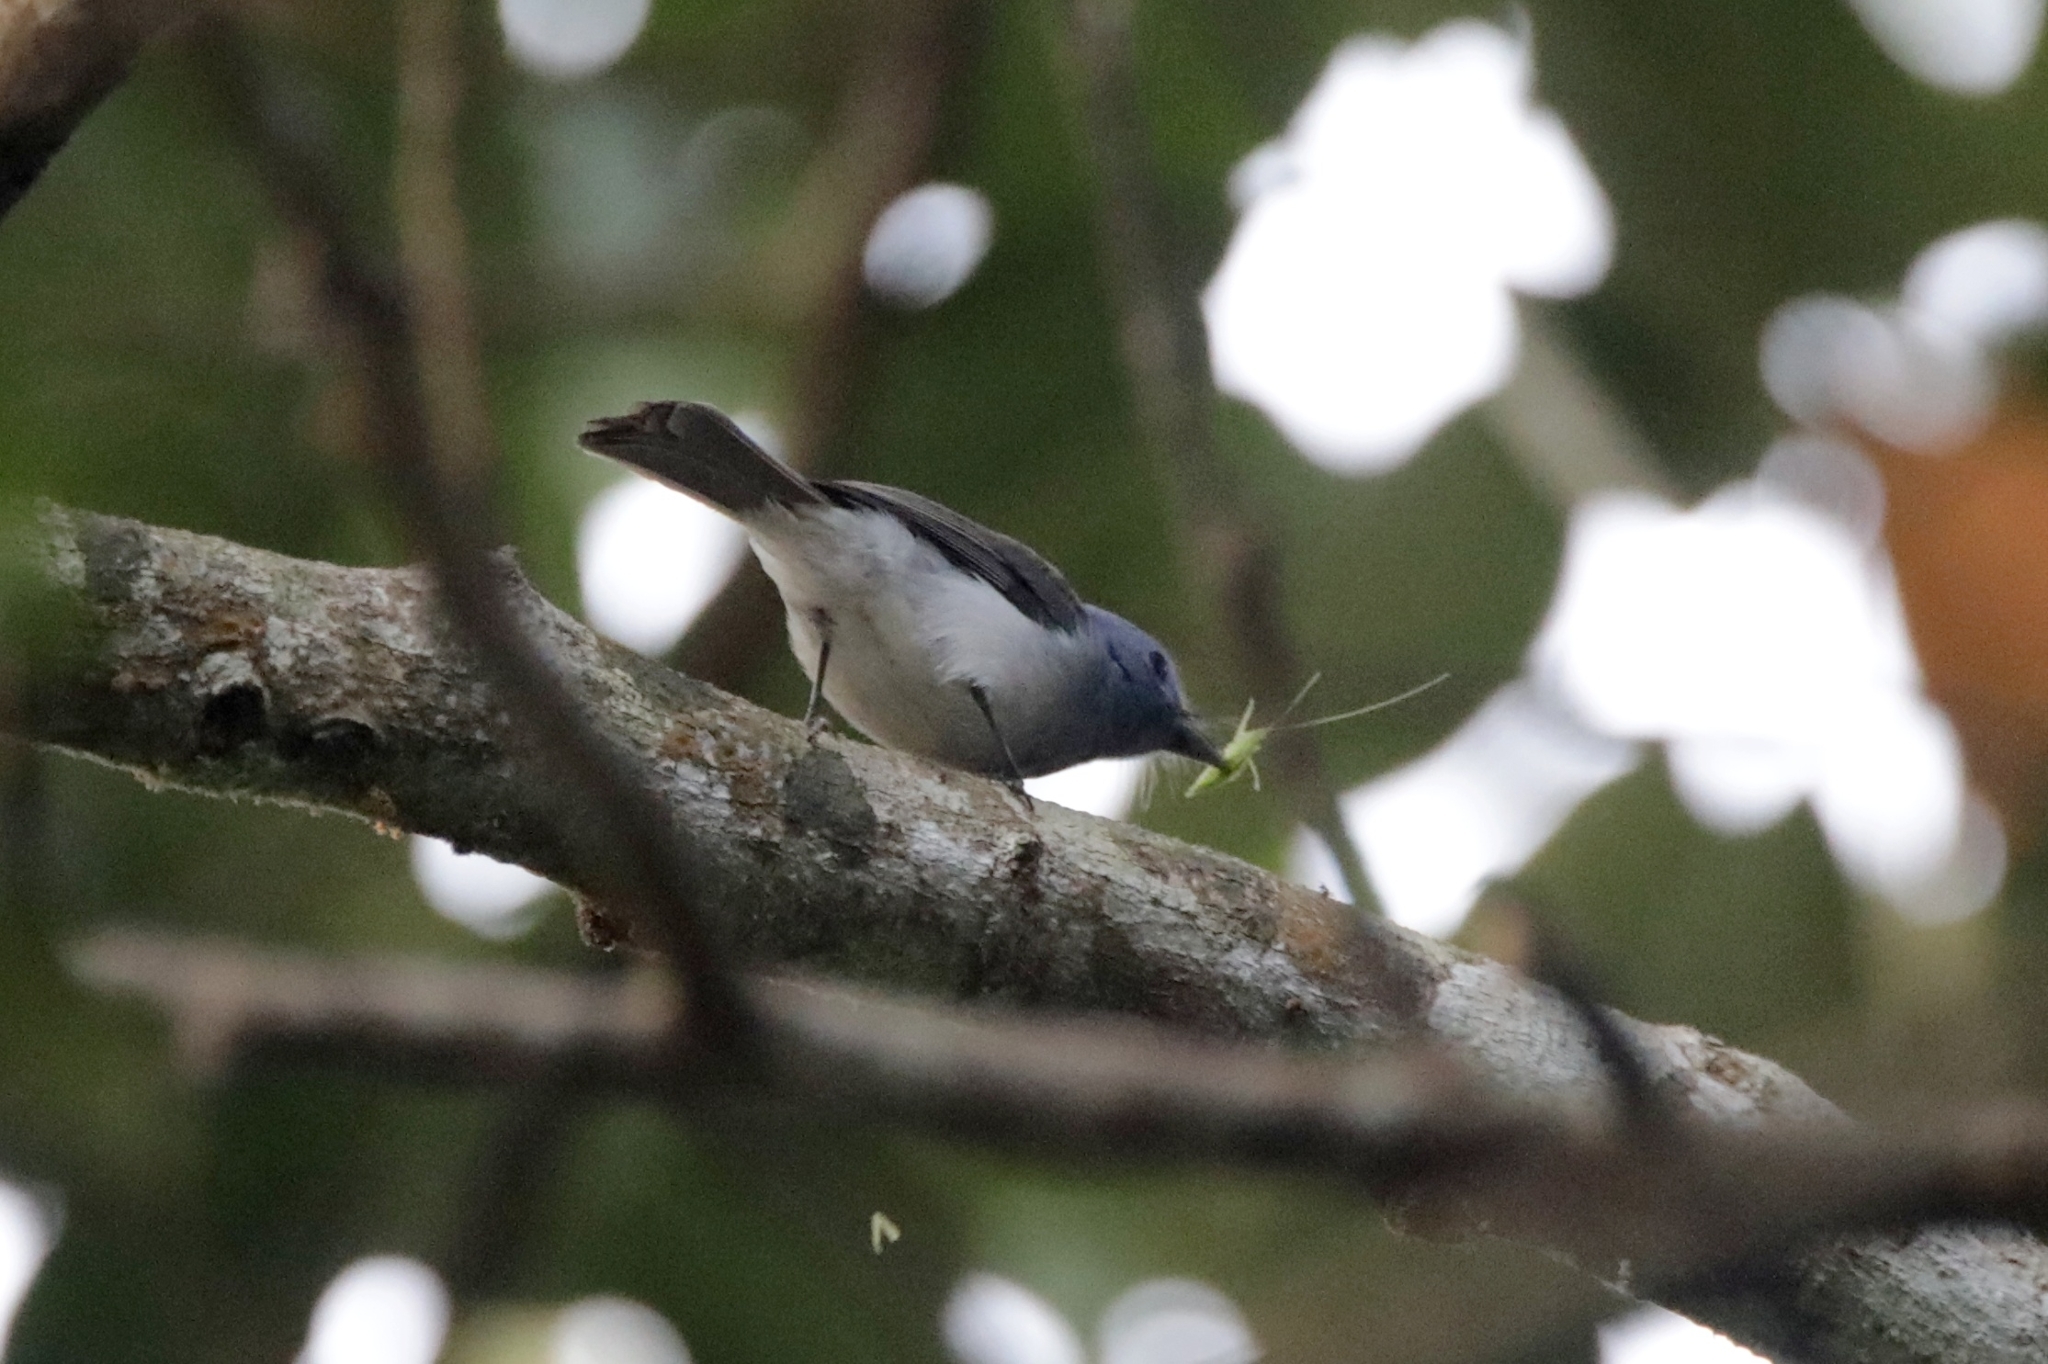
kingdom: Animalia
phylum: Chordata
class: Aves
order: Passeriformes
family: Monarchidae
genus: Hypothymis
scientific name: Hypothymis azurea
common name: Black-naped monarch
